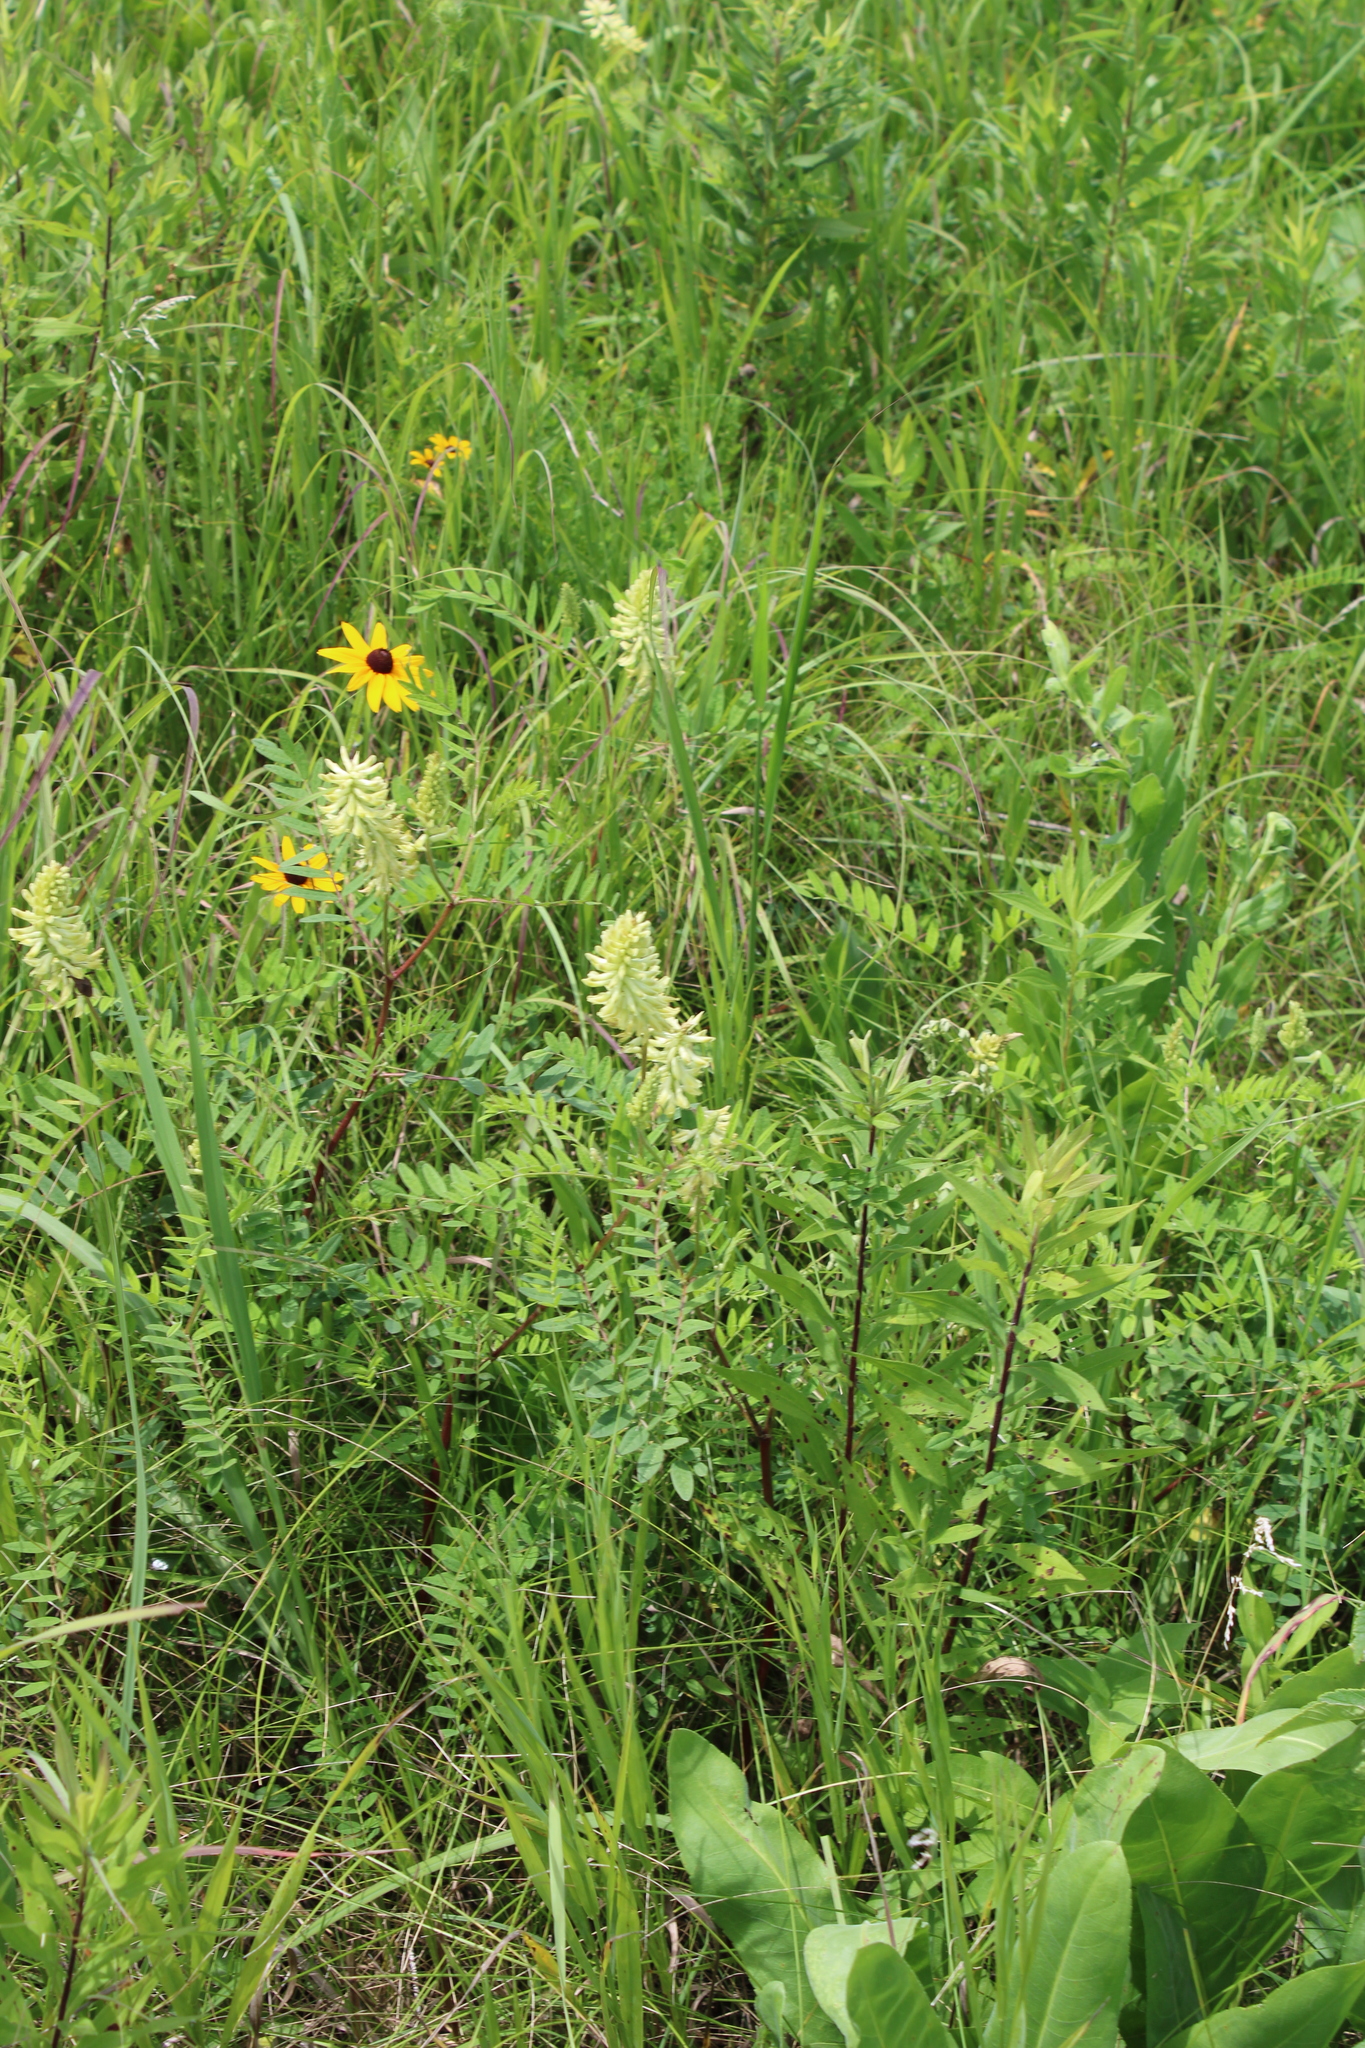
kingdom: Plantae
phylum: Tracheophyta
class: Magnoliopsida
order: Fabales
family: Fabaceae
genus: Astragalus
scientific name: Astragalus canadensis
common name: Canada milk-vetch
